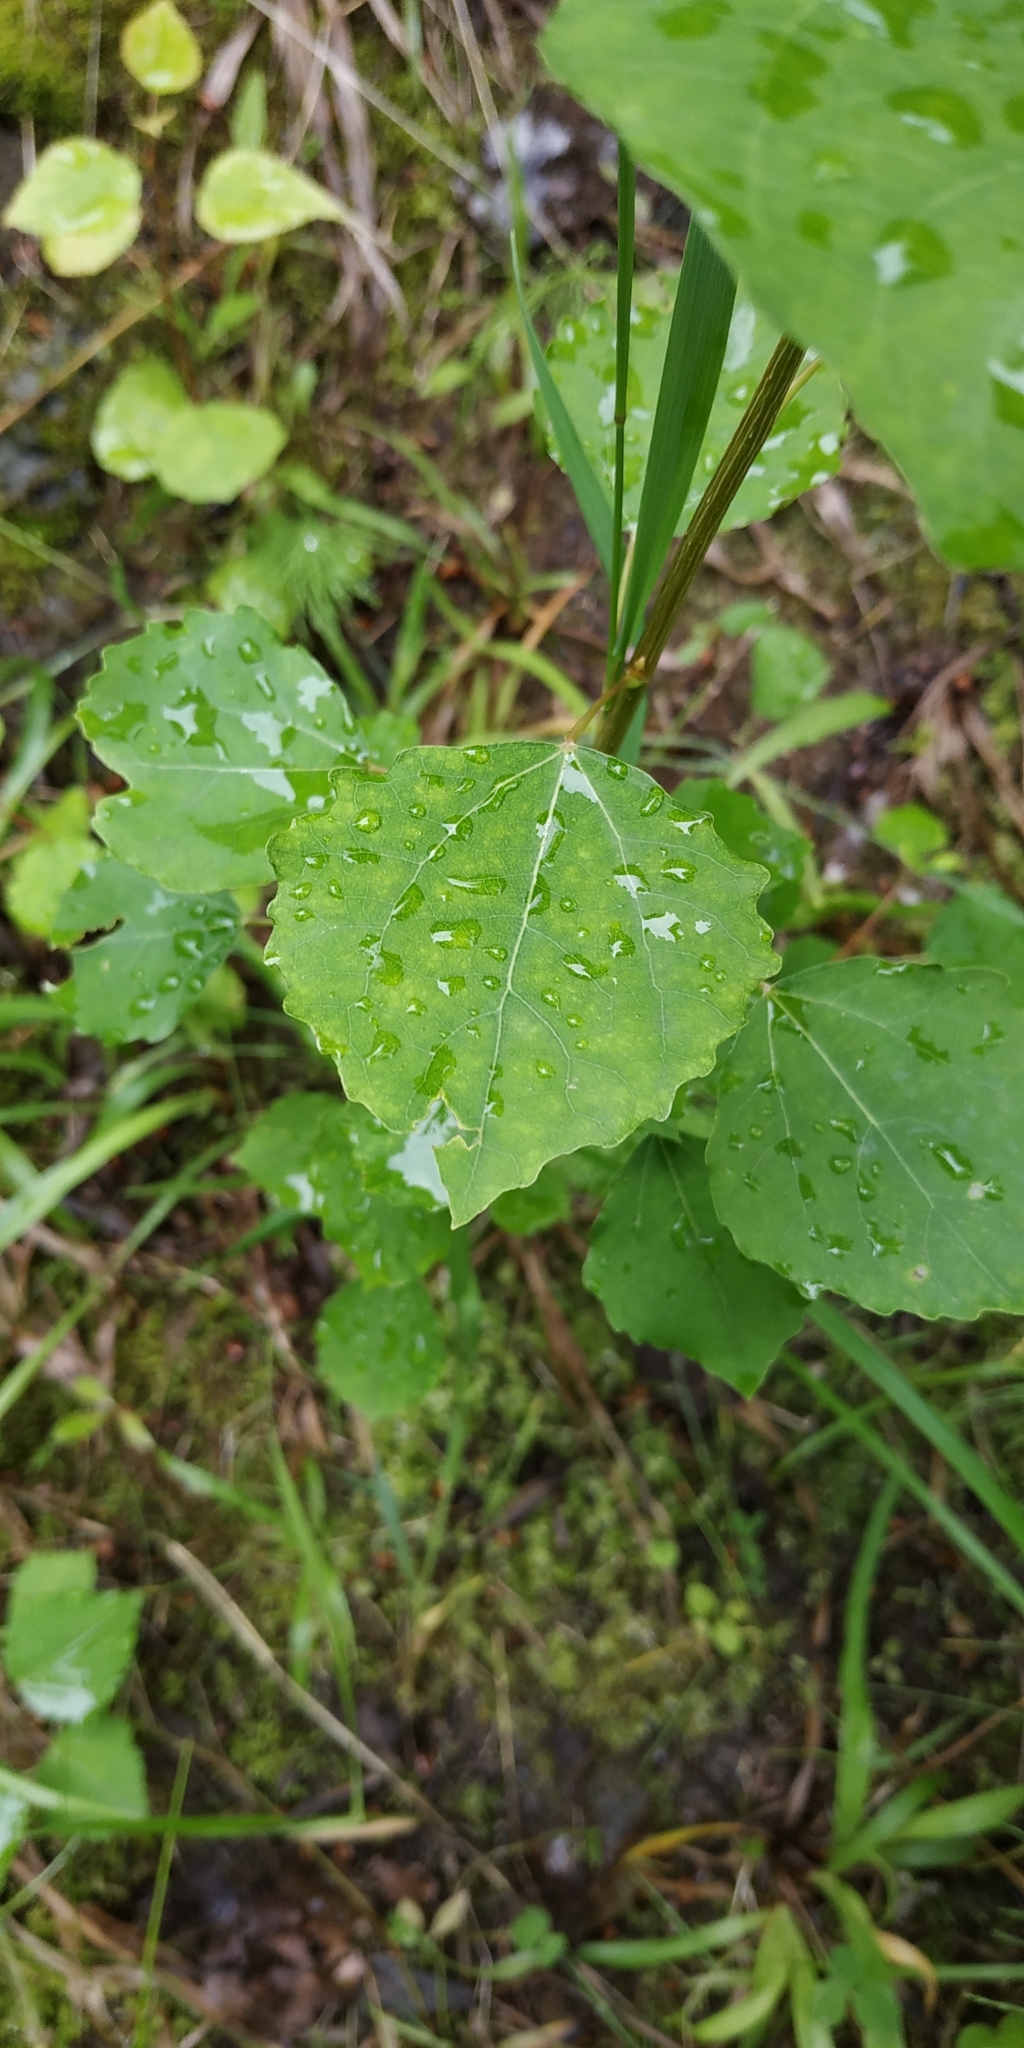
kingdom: Plantae
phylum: Tracheophyta
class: Magnoliopsida
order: Malpighiales
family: Salicaceae
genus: Populus
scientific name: Populus tremula
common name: European aspen
